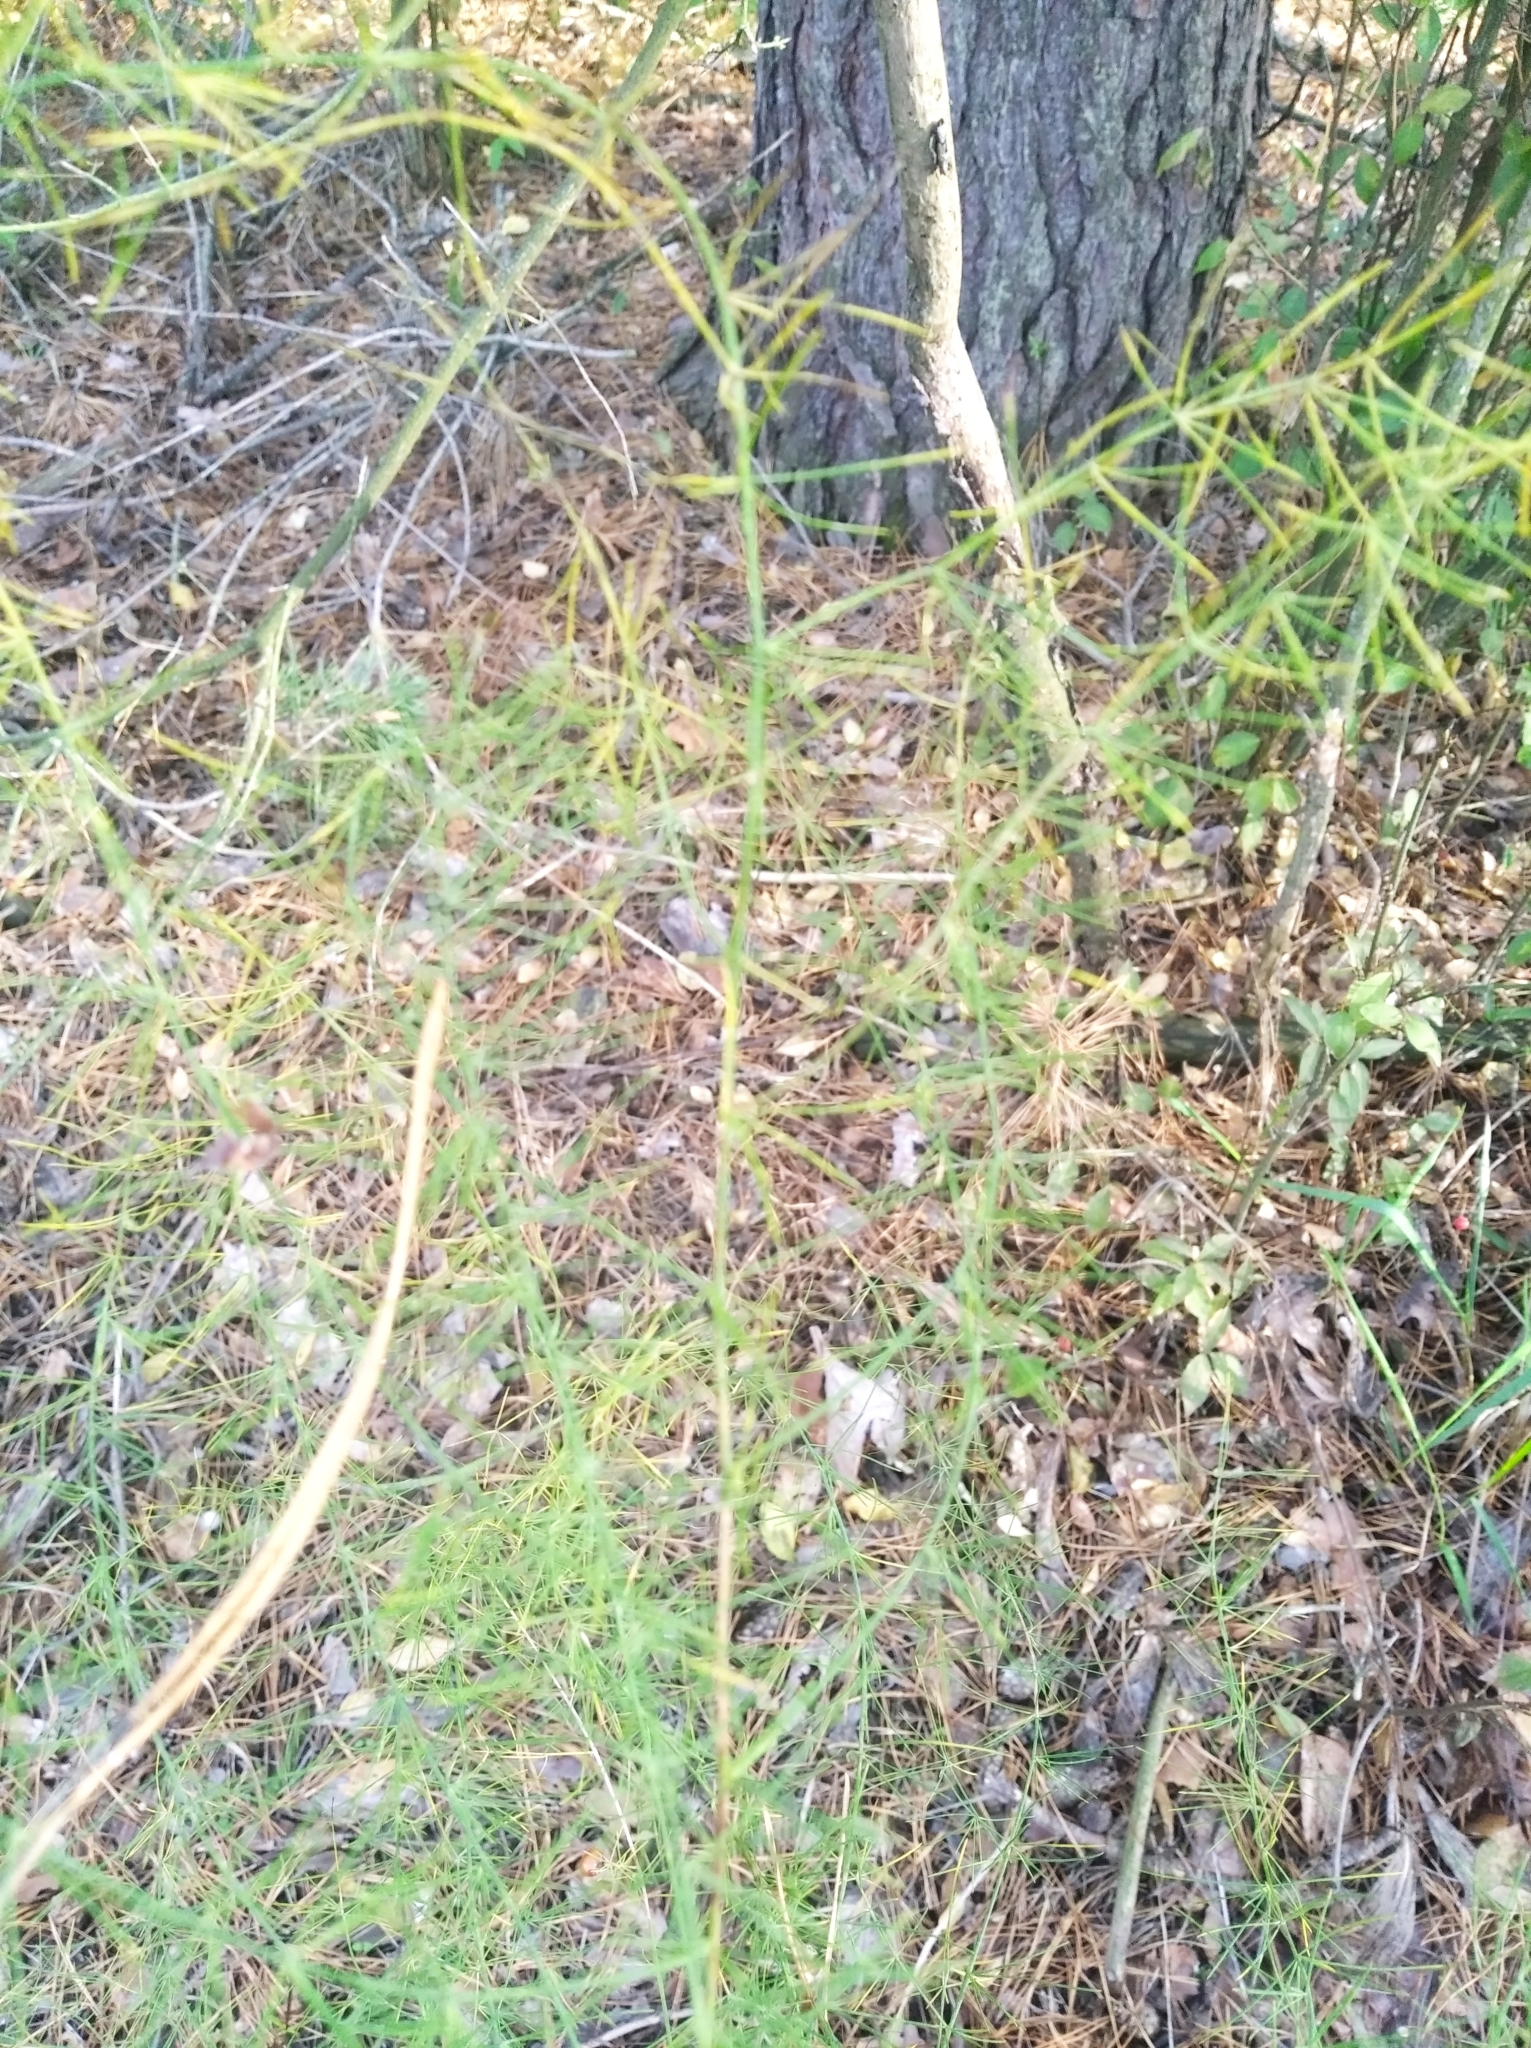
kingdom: Plantae
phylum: Tracheophyta
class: Liliopsida
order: Asparagales
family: Asparagaceae
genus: Asparagus
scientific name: Asparagus officinalis
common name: Garden asparagus
